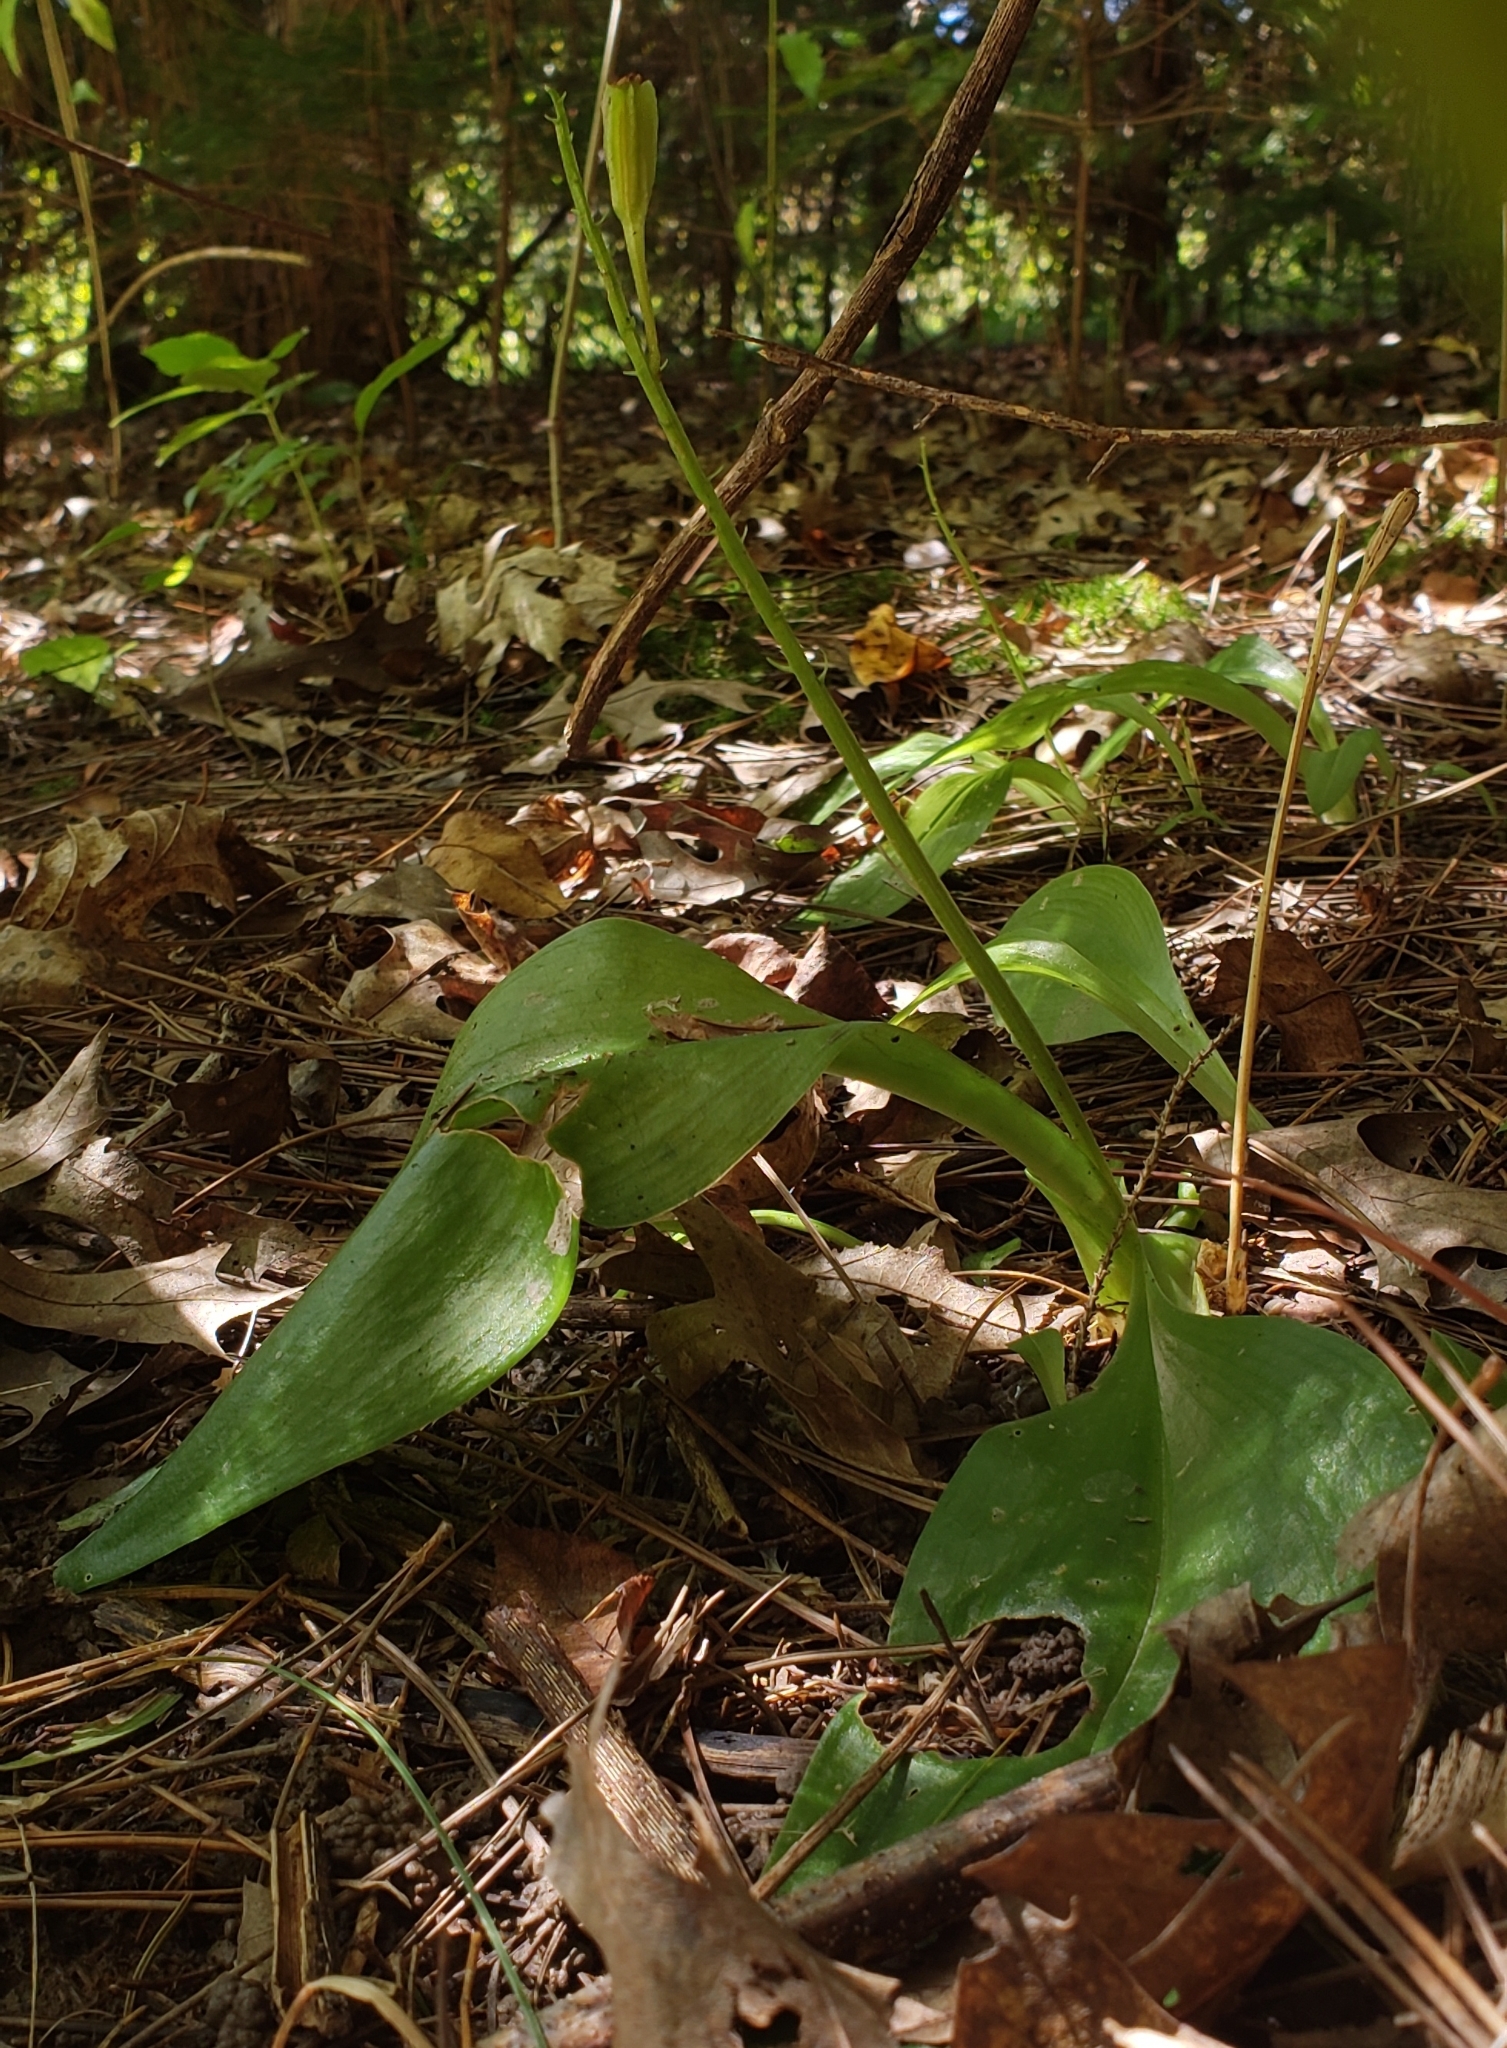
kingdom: Plantae
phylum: Tracheophyta
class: Liliopsida
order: Asparagales
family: Orchidaceae
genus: Liparis
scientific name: Liparis liliifolia
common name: Brown wide-lip orchid
